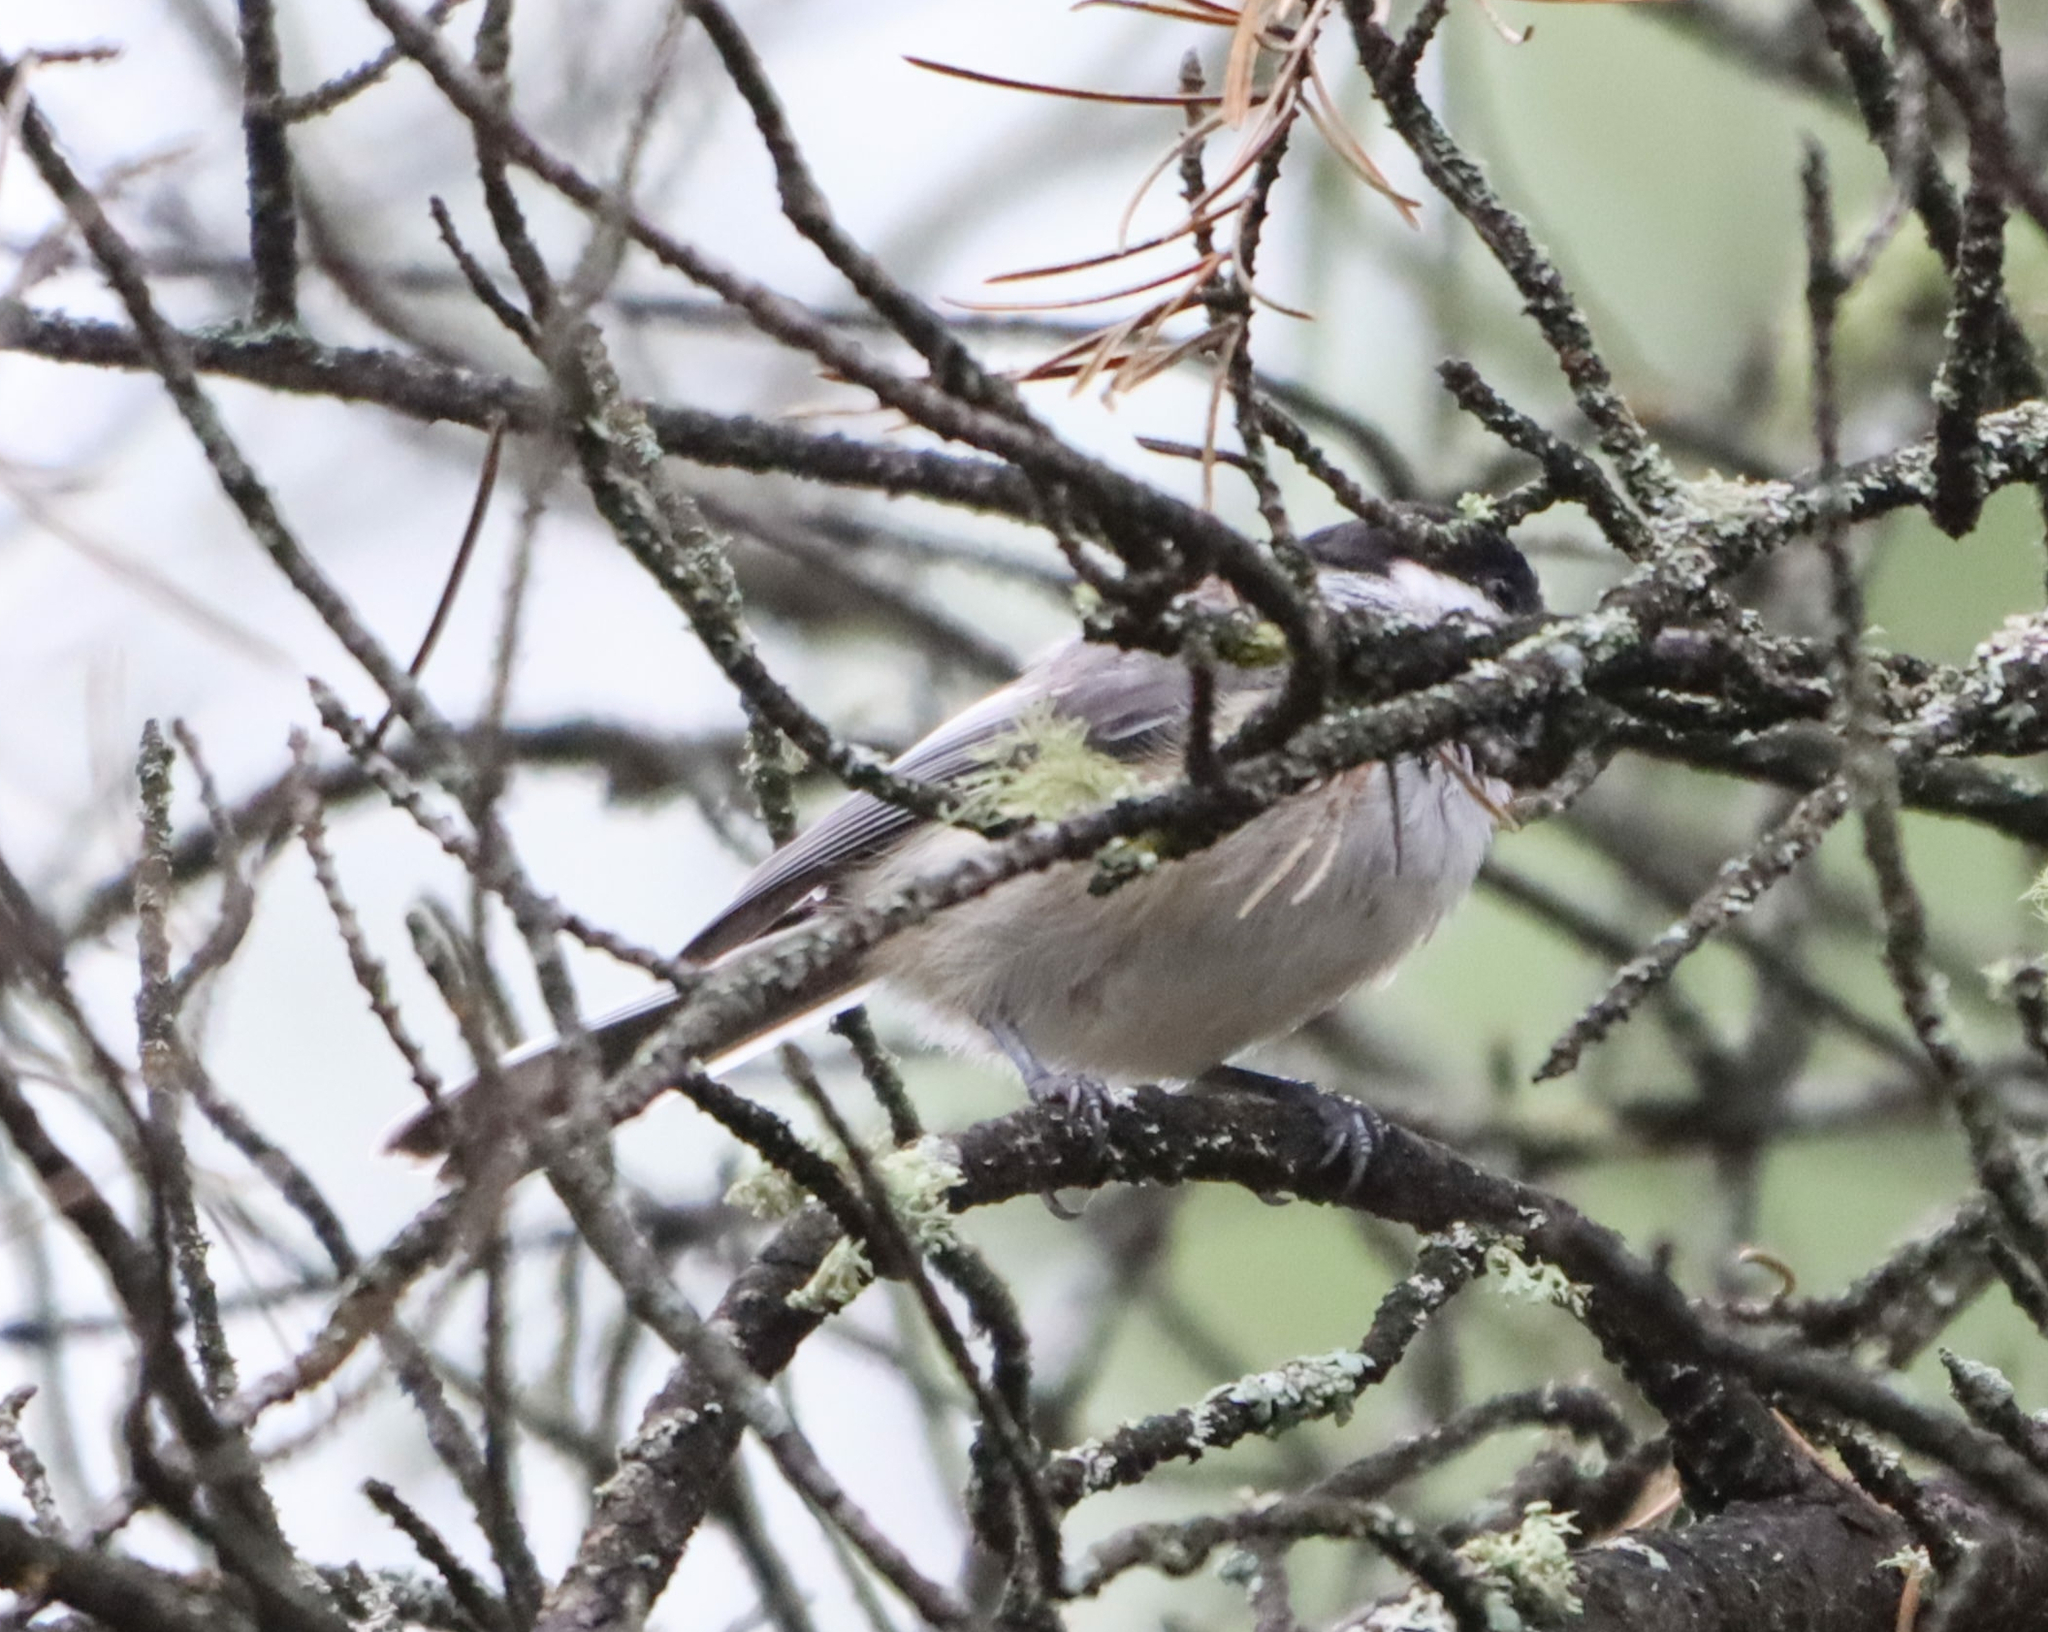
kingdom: Animalia
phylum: Chordata
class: Aves
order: Passeriformes
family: Paridae
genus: Poecile
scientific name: Poecile atricapillus
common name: Black-capped chickadee
